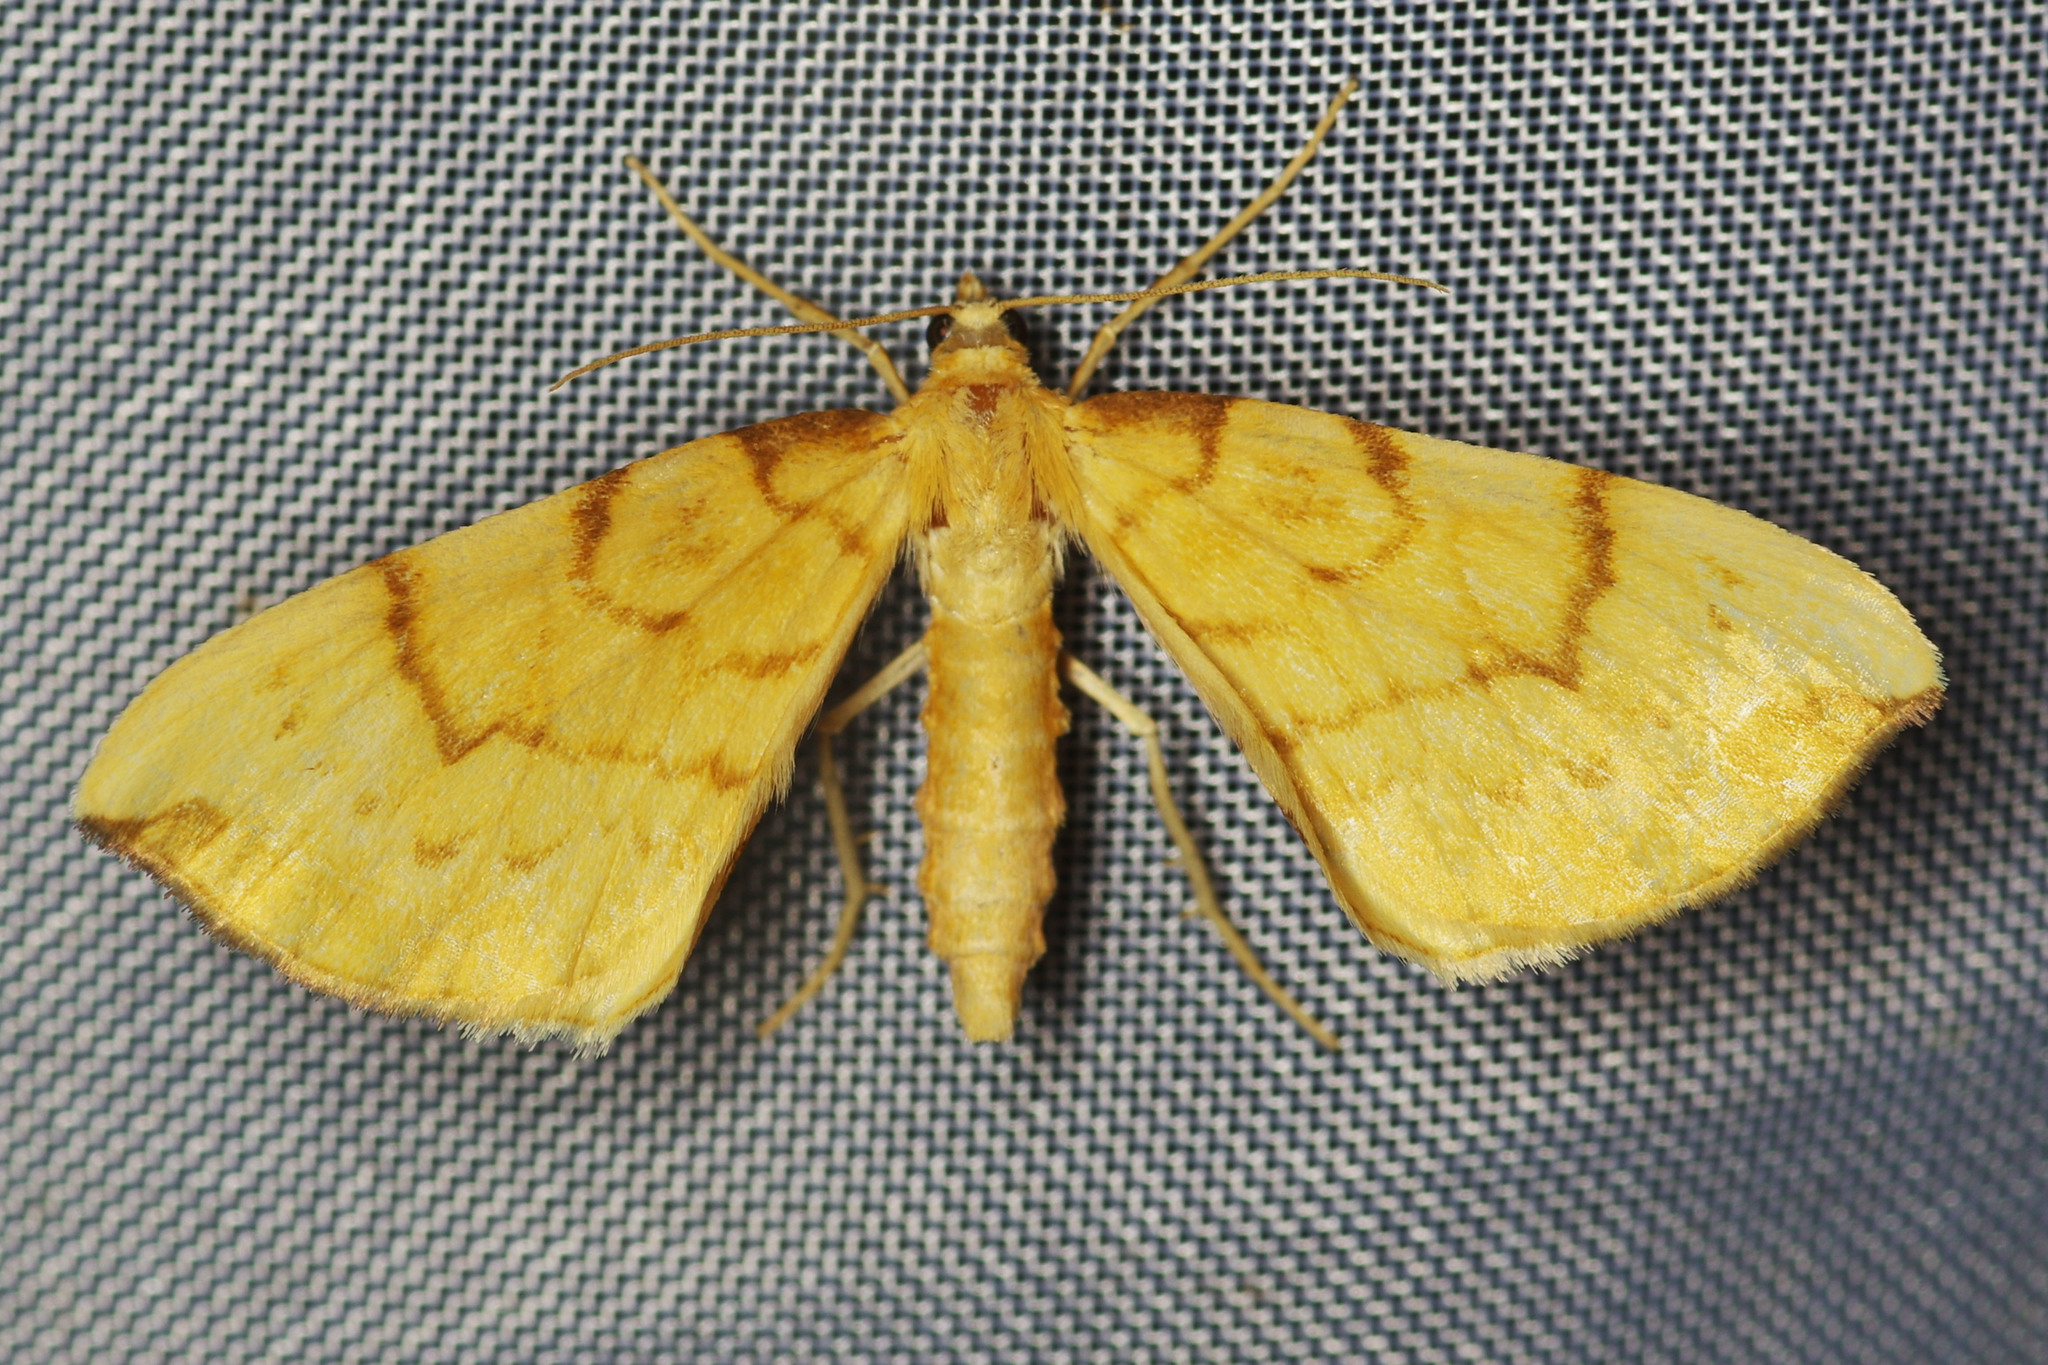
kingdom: Animalia
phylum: Arthropoda
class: Insecta
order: Lepidoptera
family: Geometridae
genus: Eulithis
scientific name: Eulithis pyraliata
